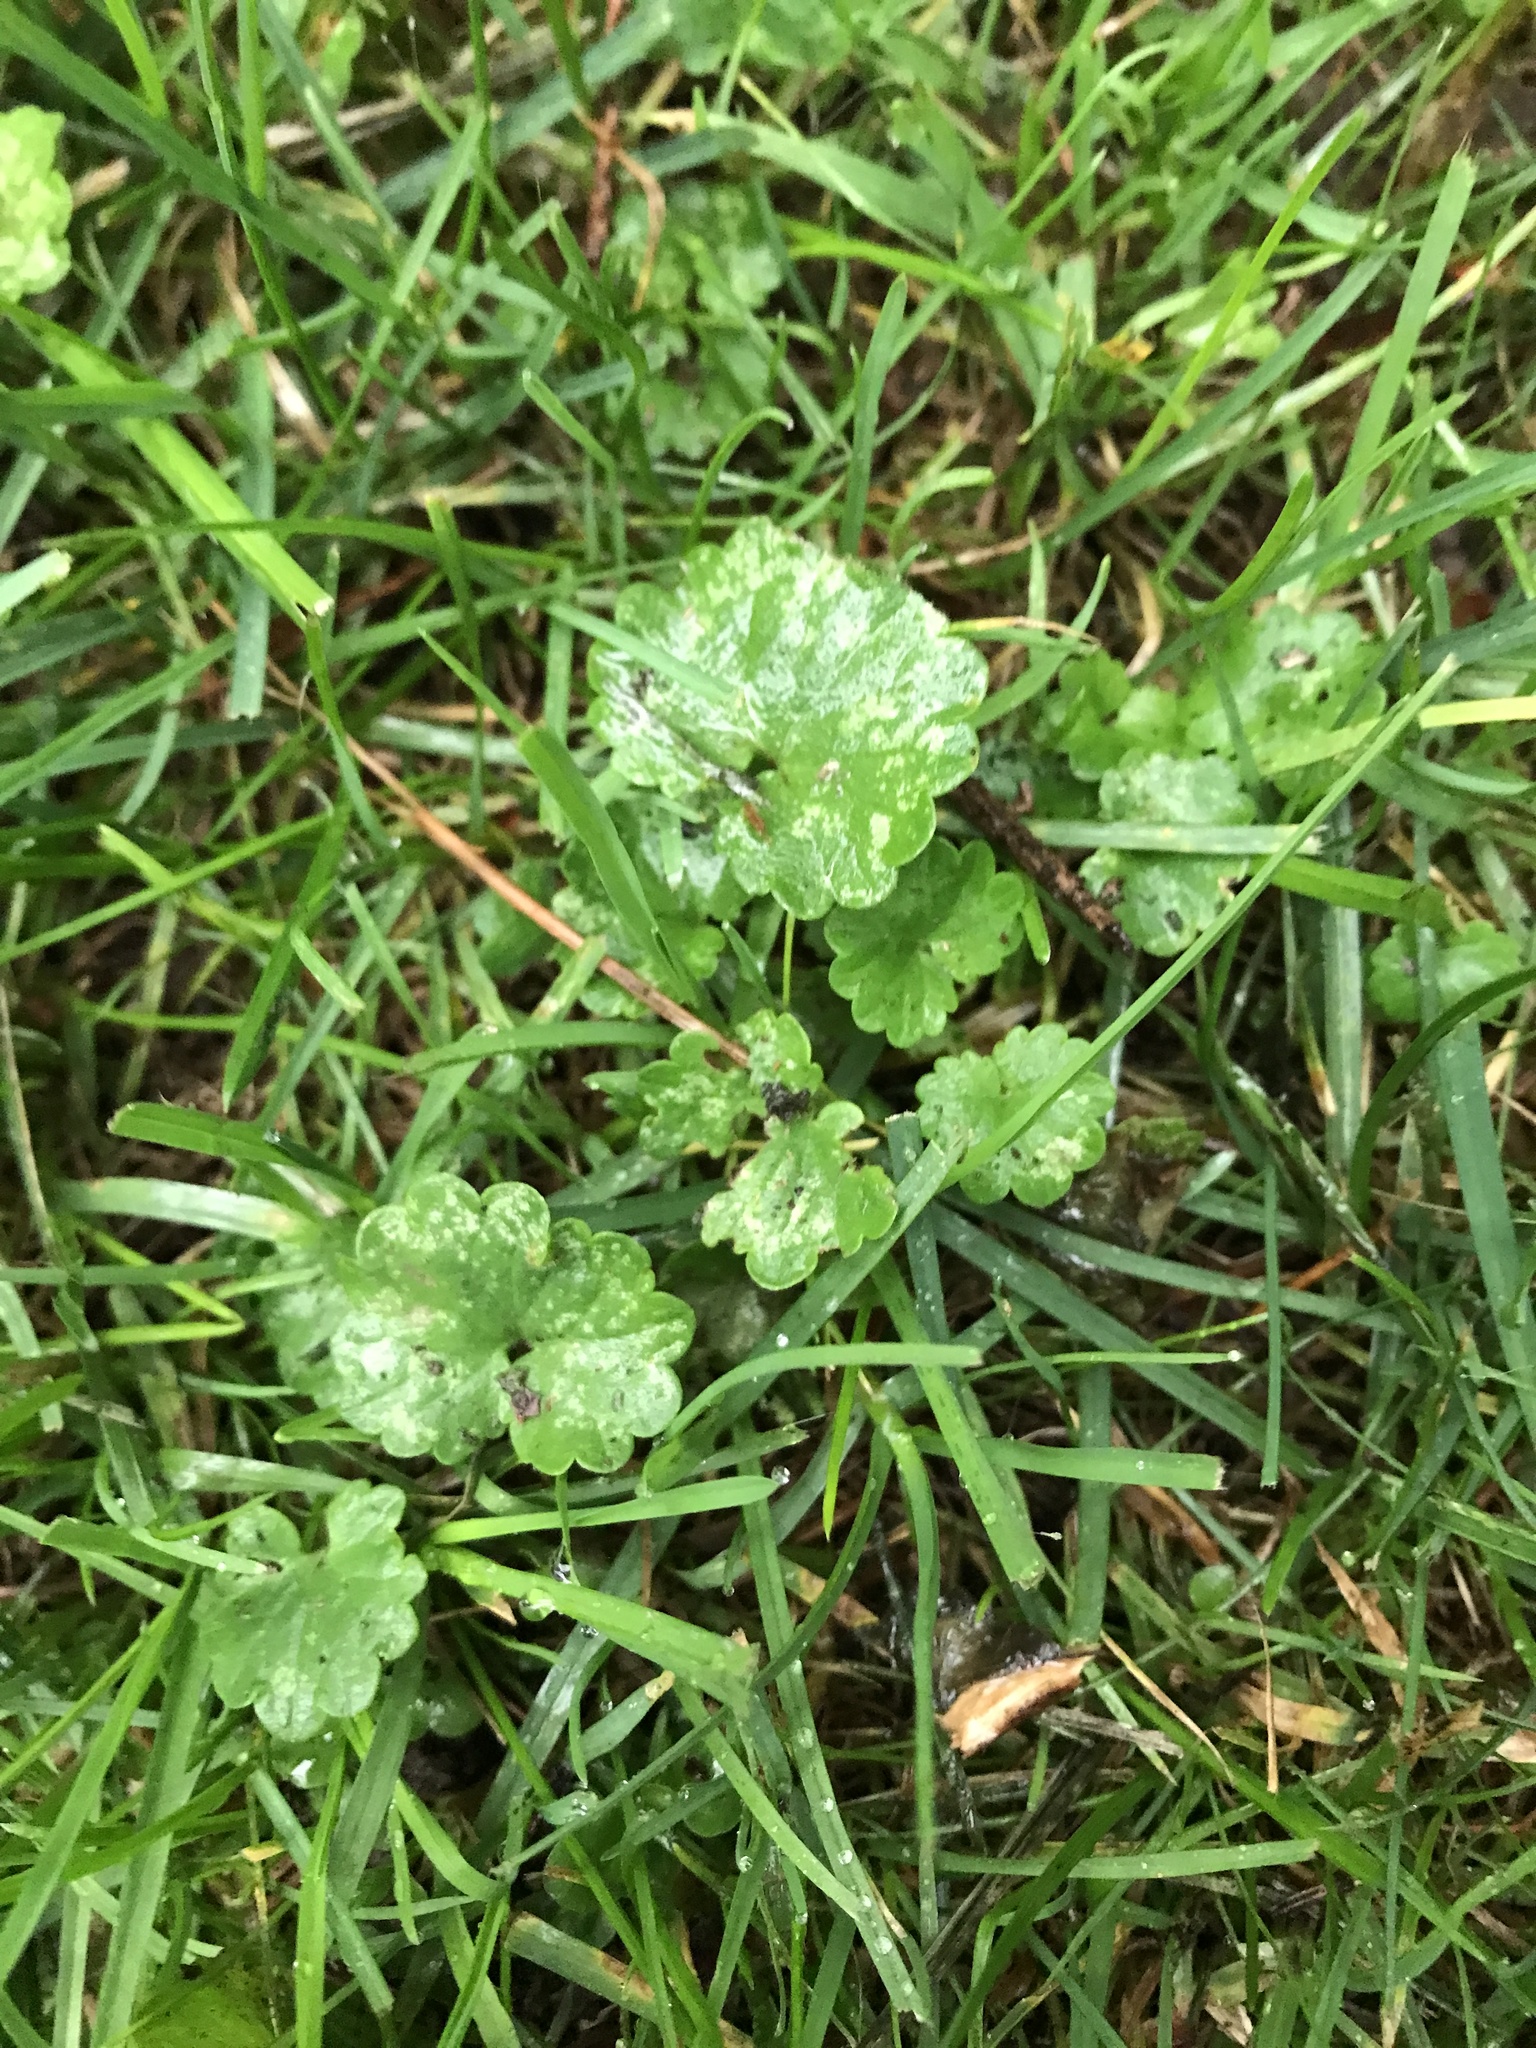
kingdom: Plantae
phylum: Tracheophyta
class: Magnoliopsida
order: Lamiales
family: Lamiaceae
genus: Glechoma
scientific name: Glechoma hederacea
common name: Ground ivy
